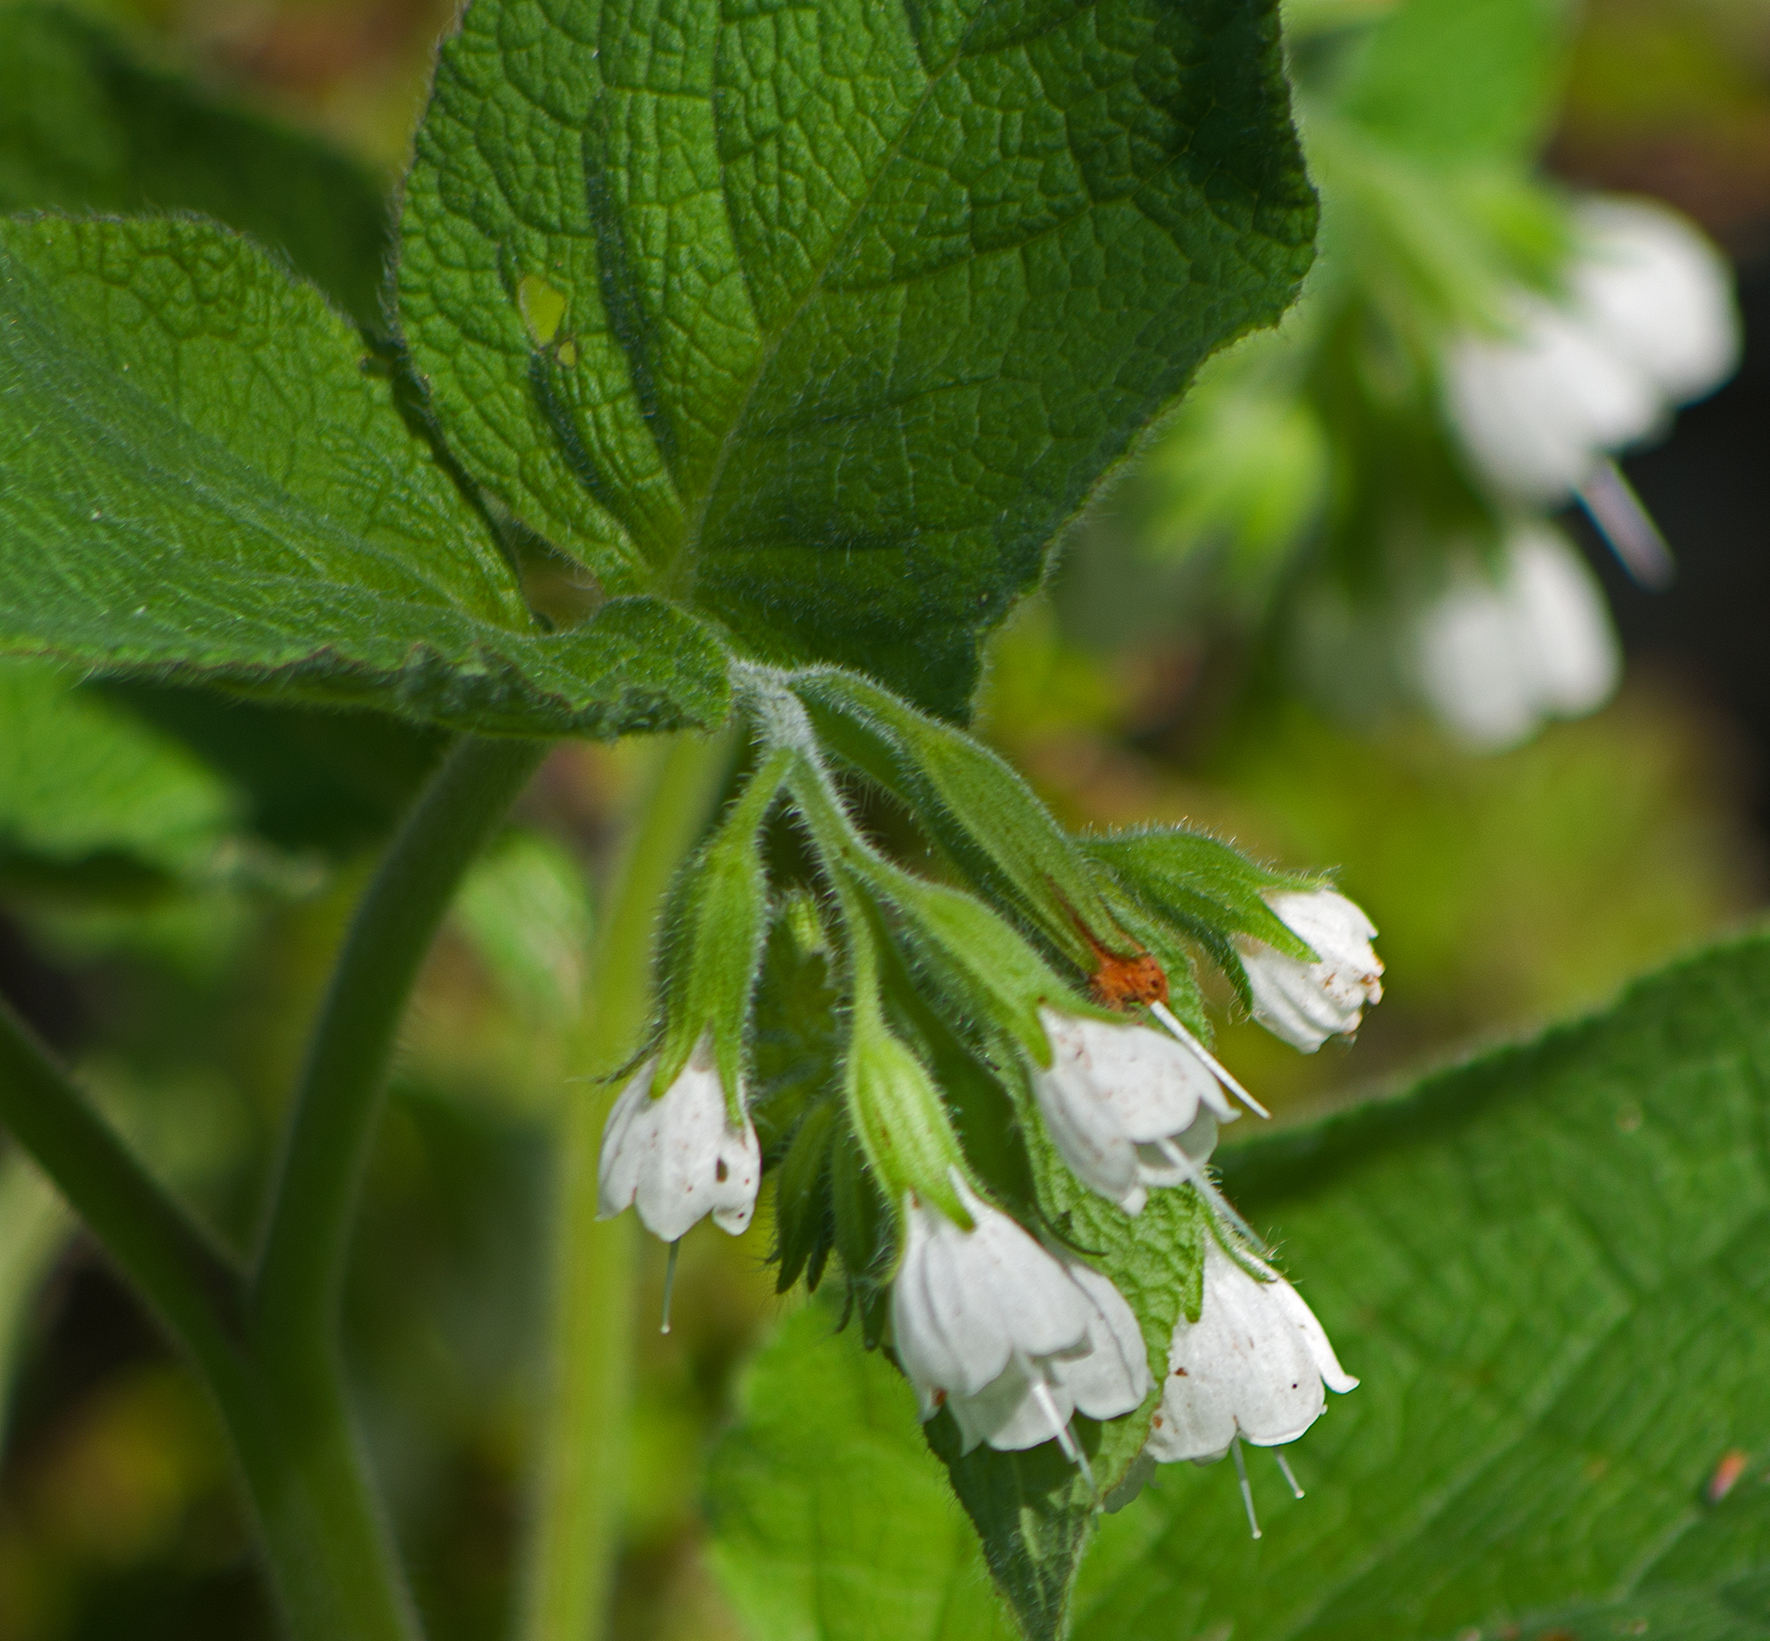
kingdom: Plantae
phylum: Tracheophyta
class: Magnoliopsida
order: Boraginales
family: Boraginaceae
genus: Symphytum
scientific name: Symphytum orientale
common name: White comfrey
